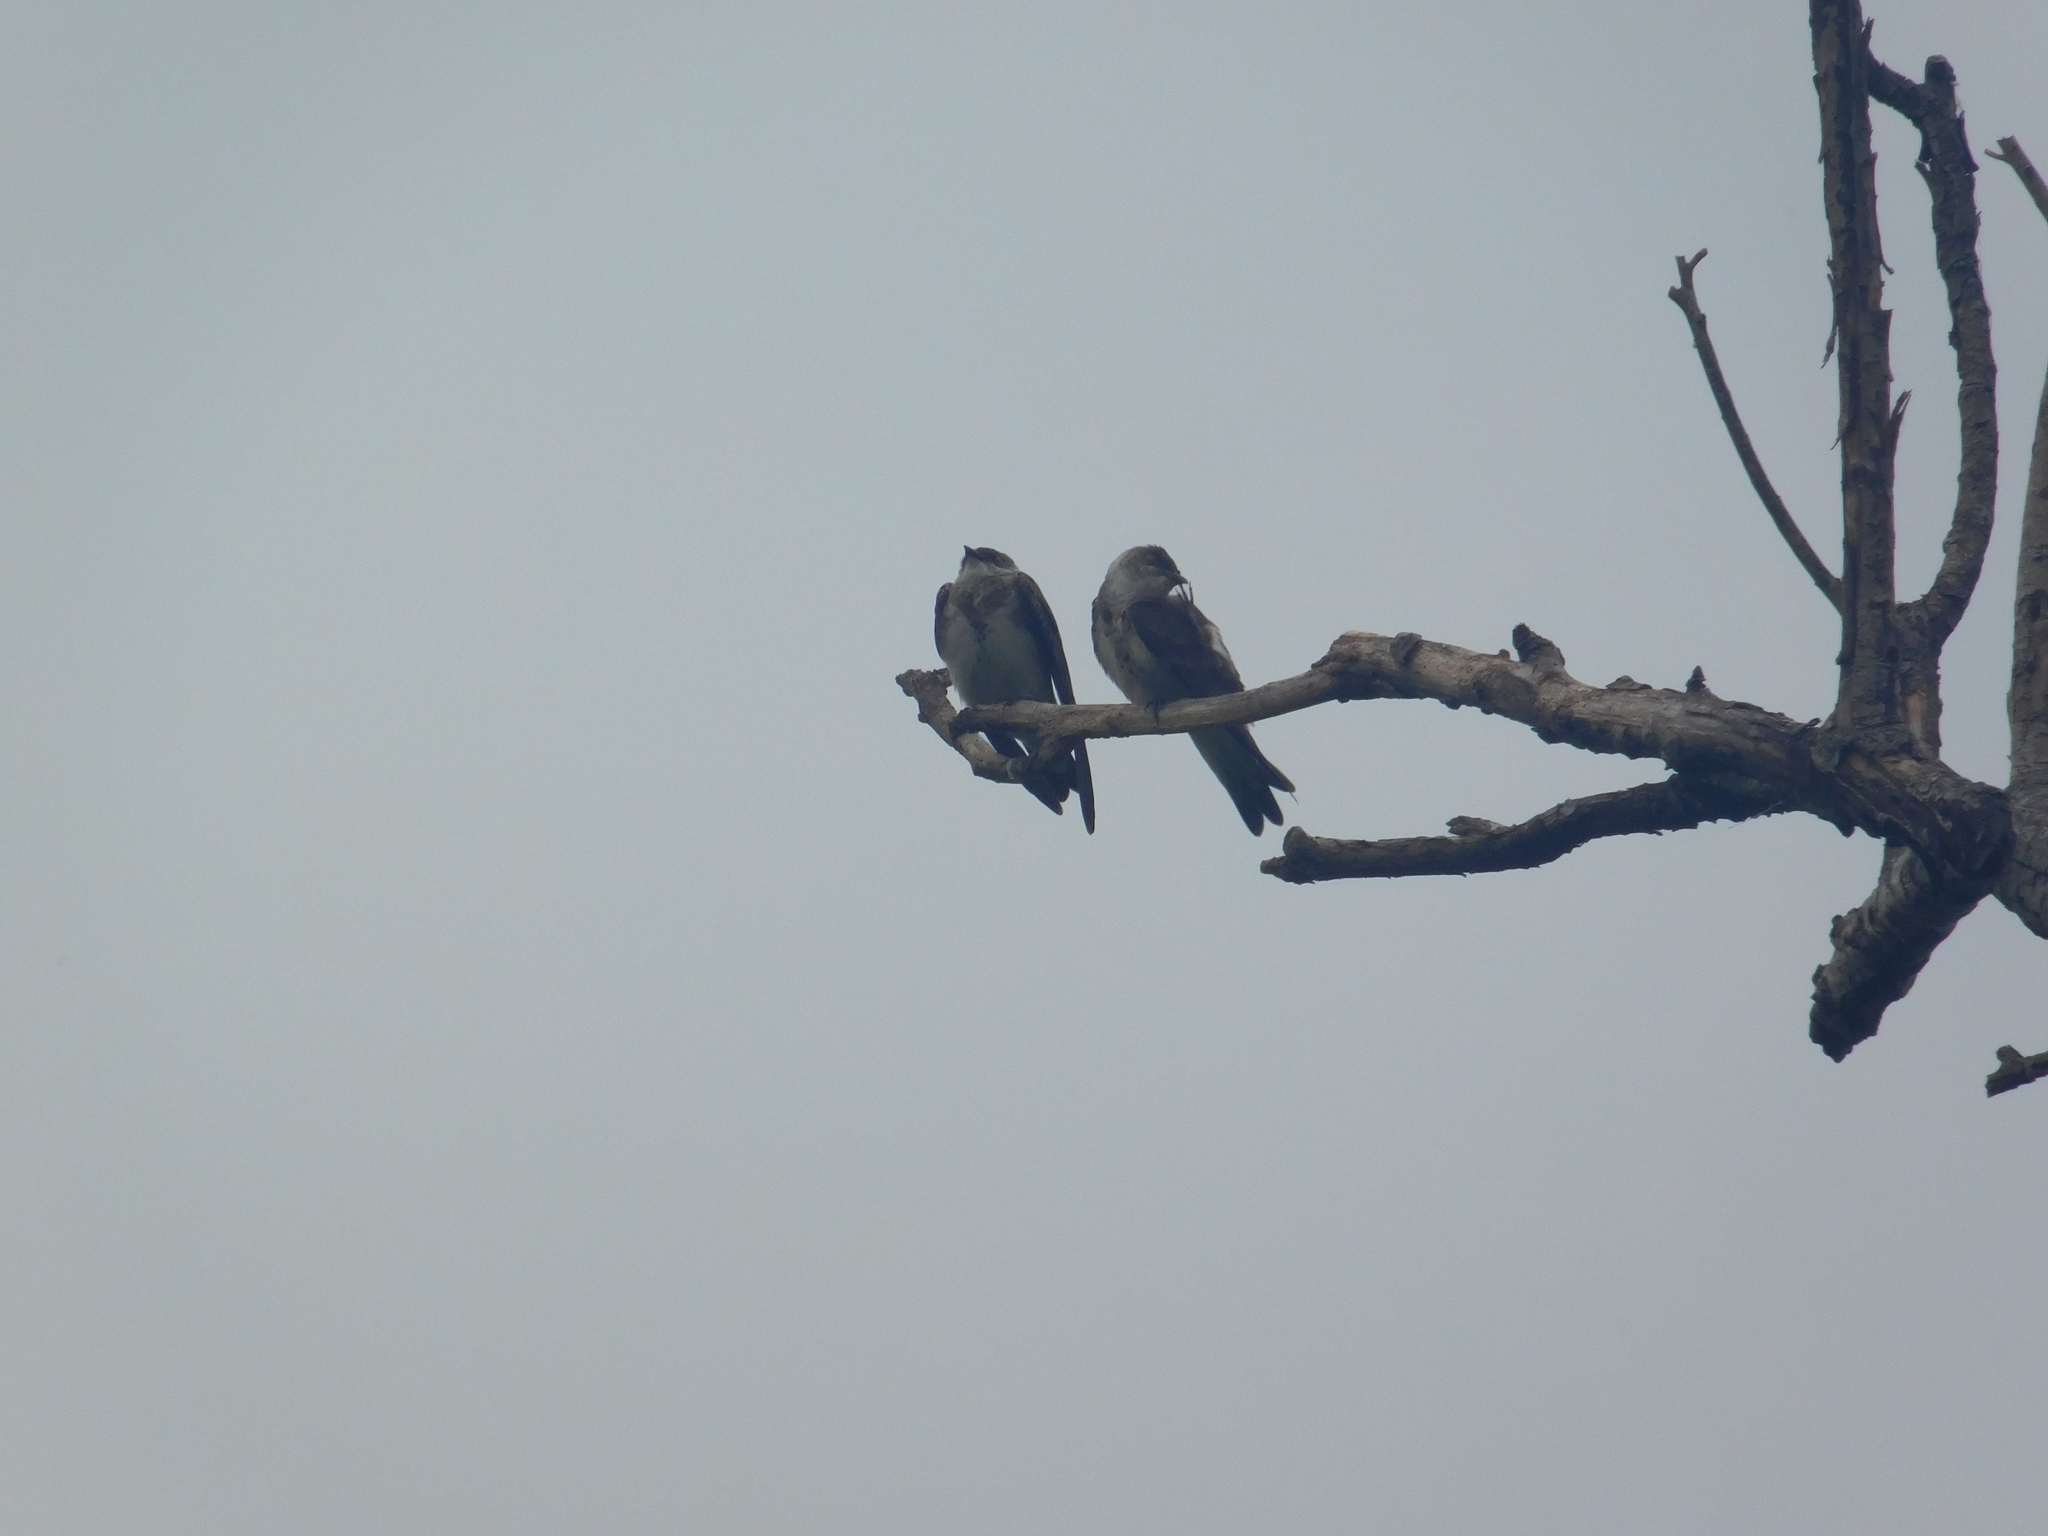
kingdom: Animalia
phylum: Chordata
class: Aves
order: Passeriformes
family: Hirundinidae
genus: Progne
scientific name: Progne tapera
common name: Brown-chested martin
